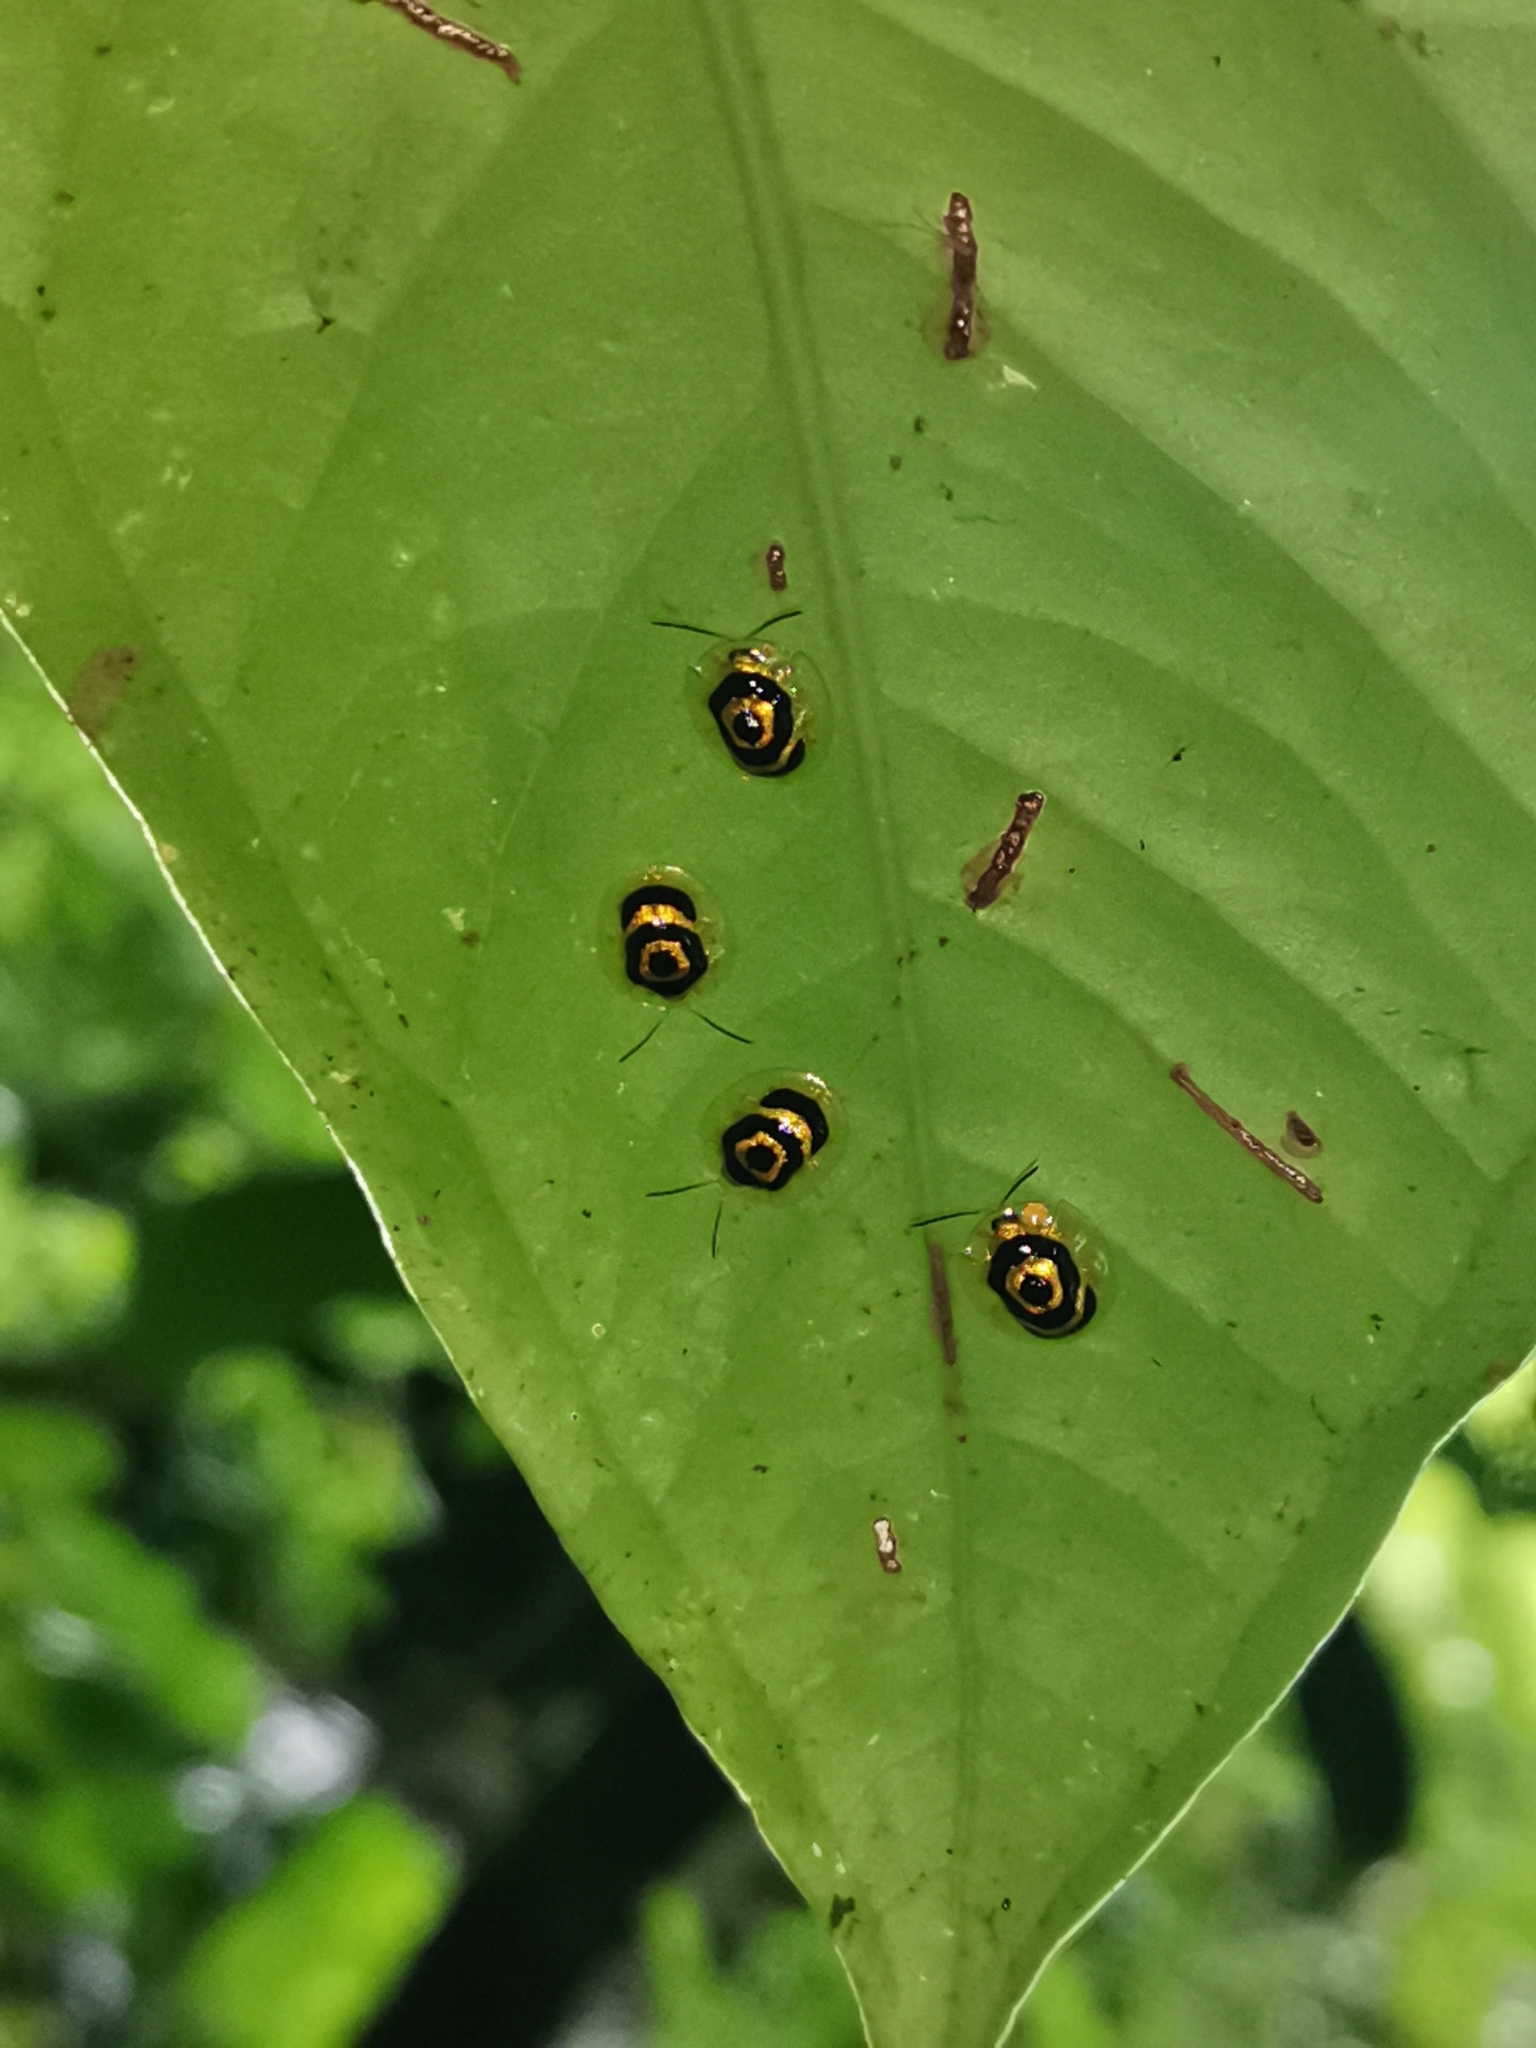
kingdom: Animalia
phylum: Arthropoda
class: Insecta
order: Coleoptera
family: Chrysomelidae
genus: Ischnocodia
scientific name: Ischnocodia annulus
